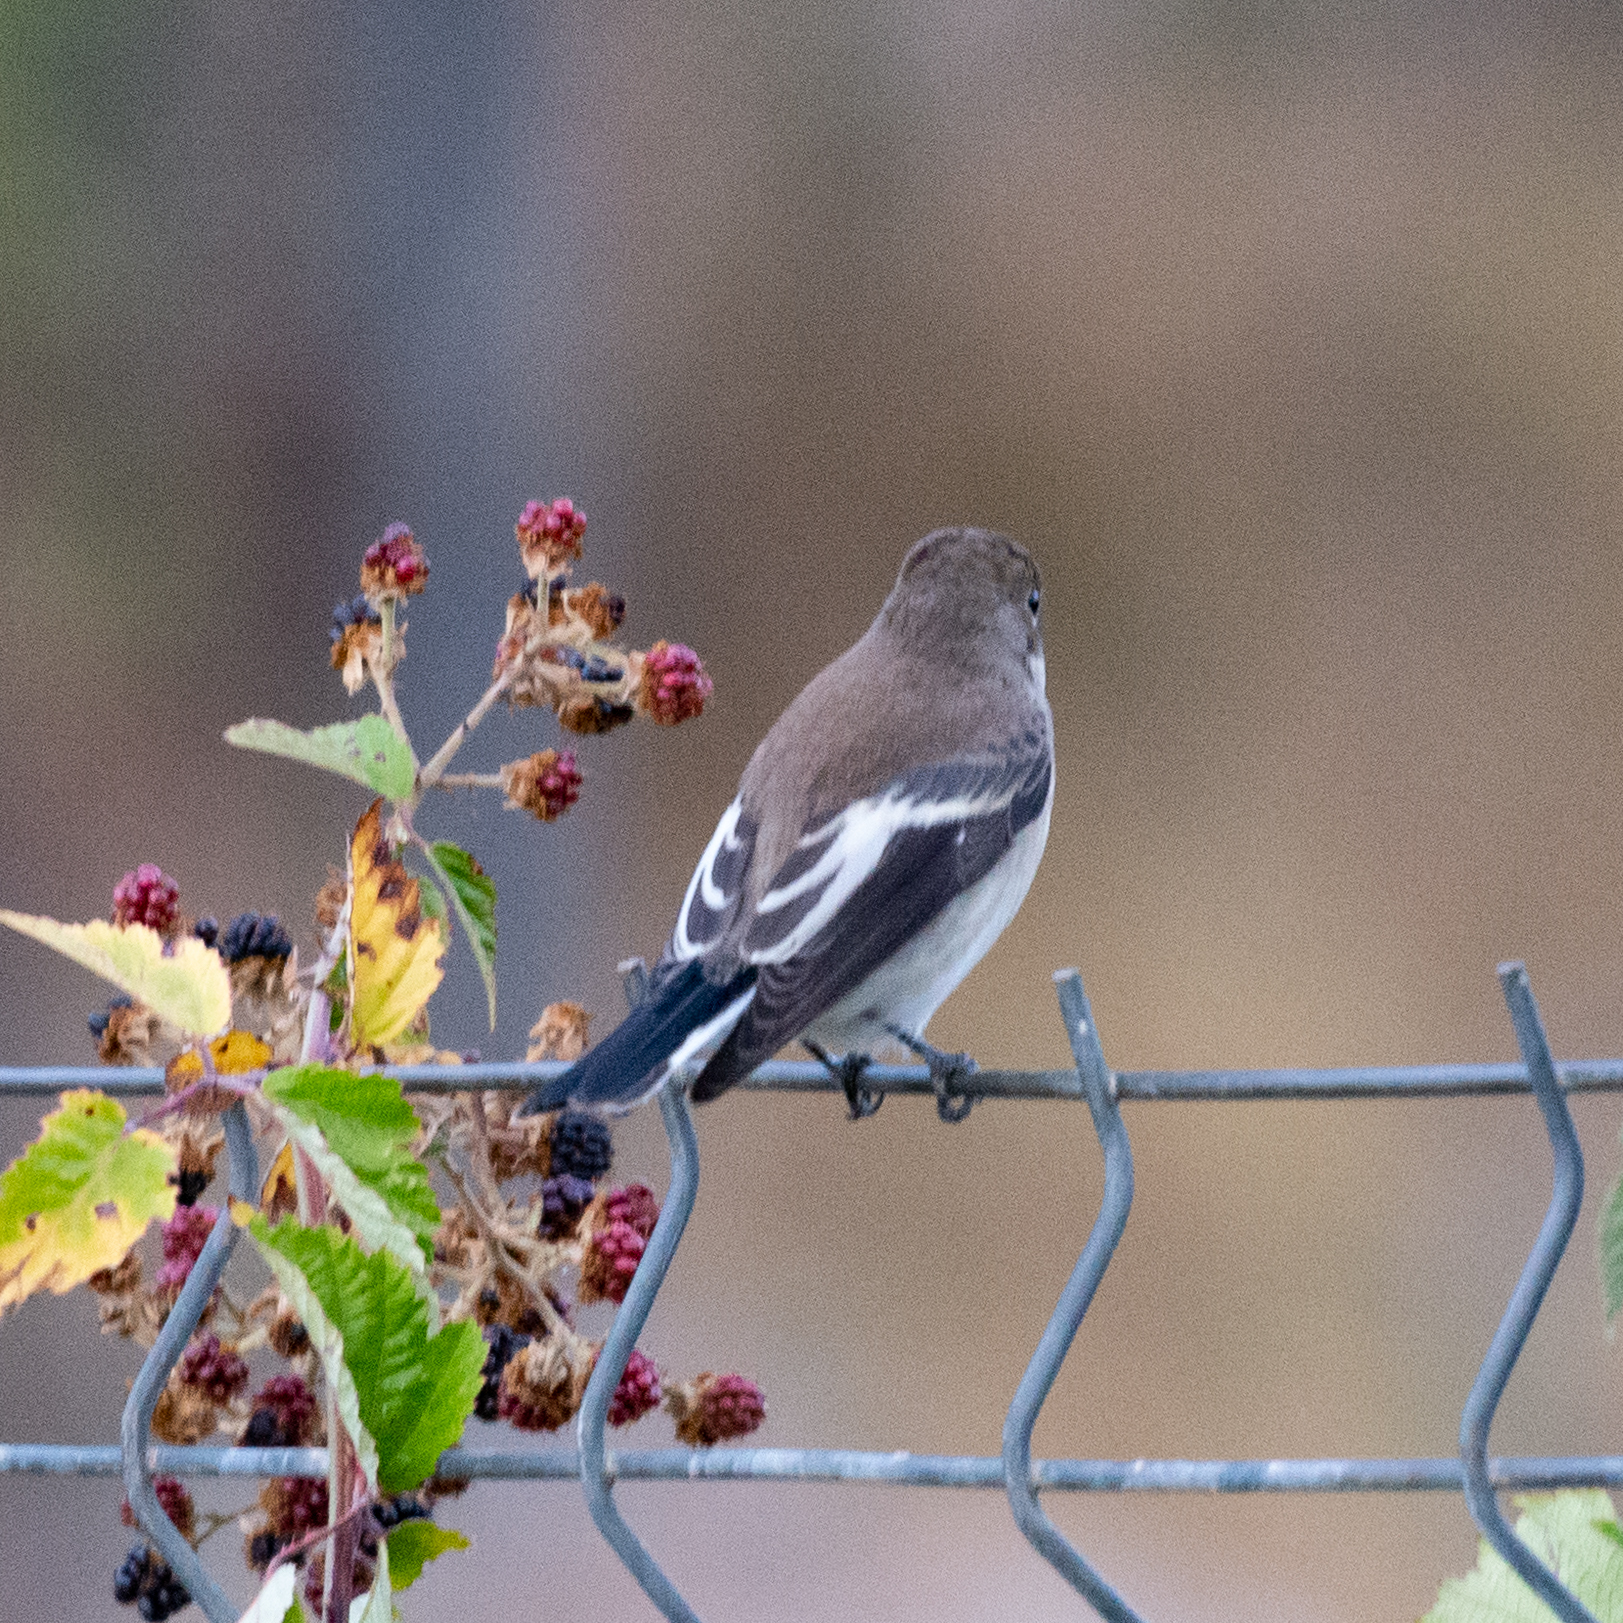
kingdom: Animalia
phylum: Chordata
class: Aves
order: Passeriformes
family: Muscicapidae
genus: Ficedula
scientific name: Ficedula hypoleuca
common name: European pied flycatcher
